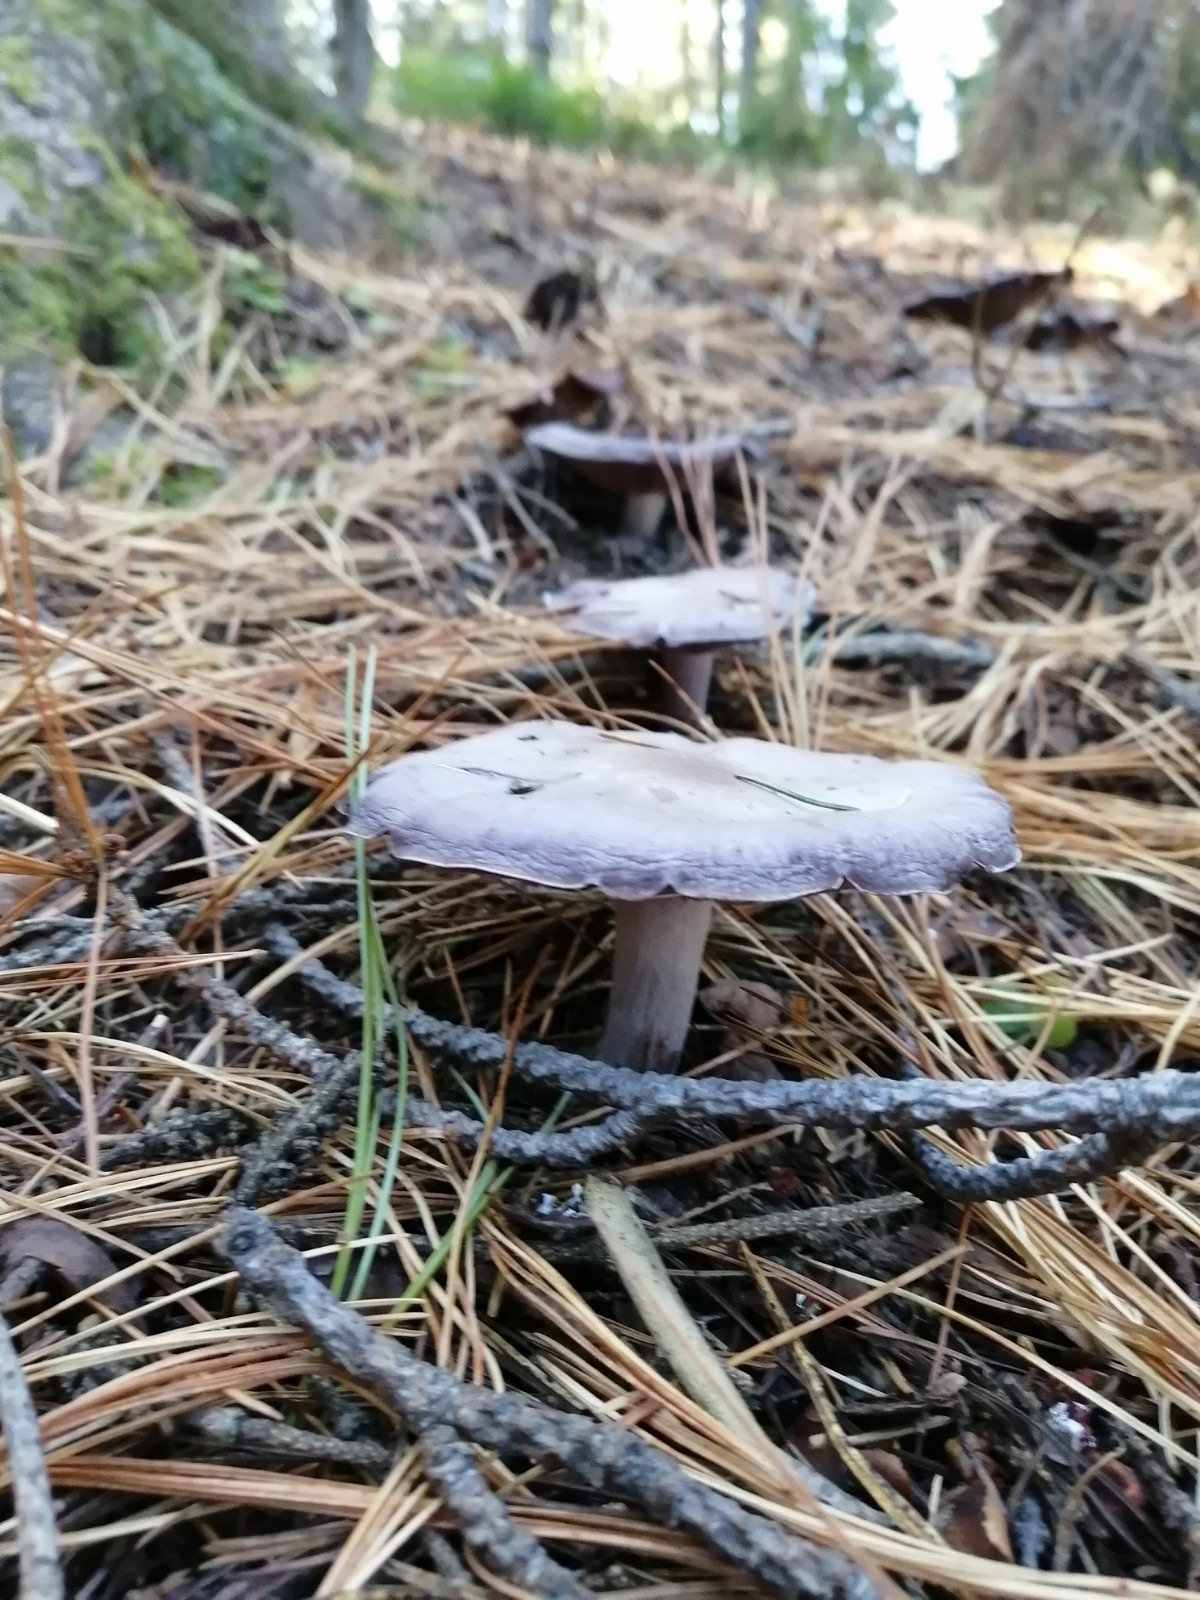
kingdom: Fungi
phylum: Basidiomycota
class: Agaricomycetes
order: Agaricales
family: Tricholomataceae
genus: Clitocybe
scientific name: Clitocybe nebularis
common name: Clouded agaric
